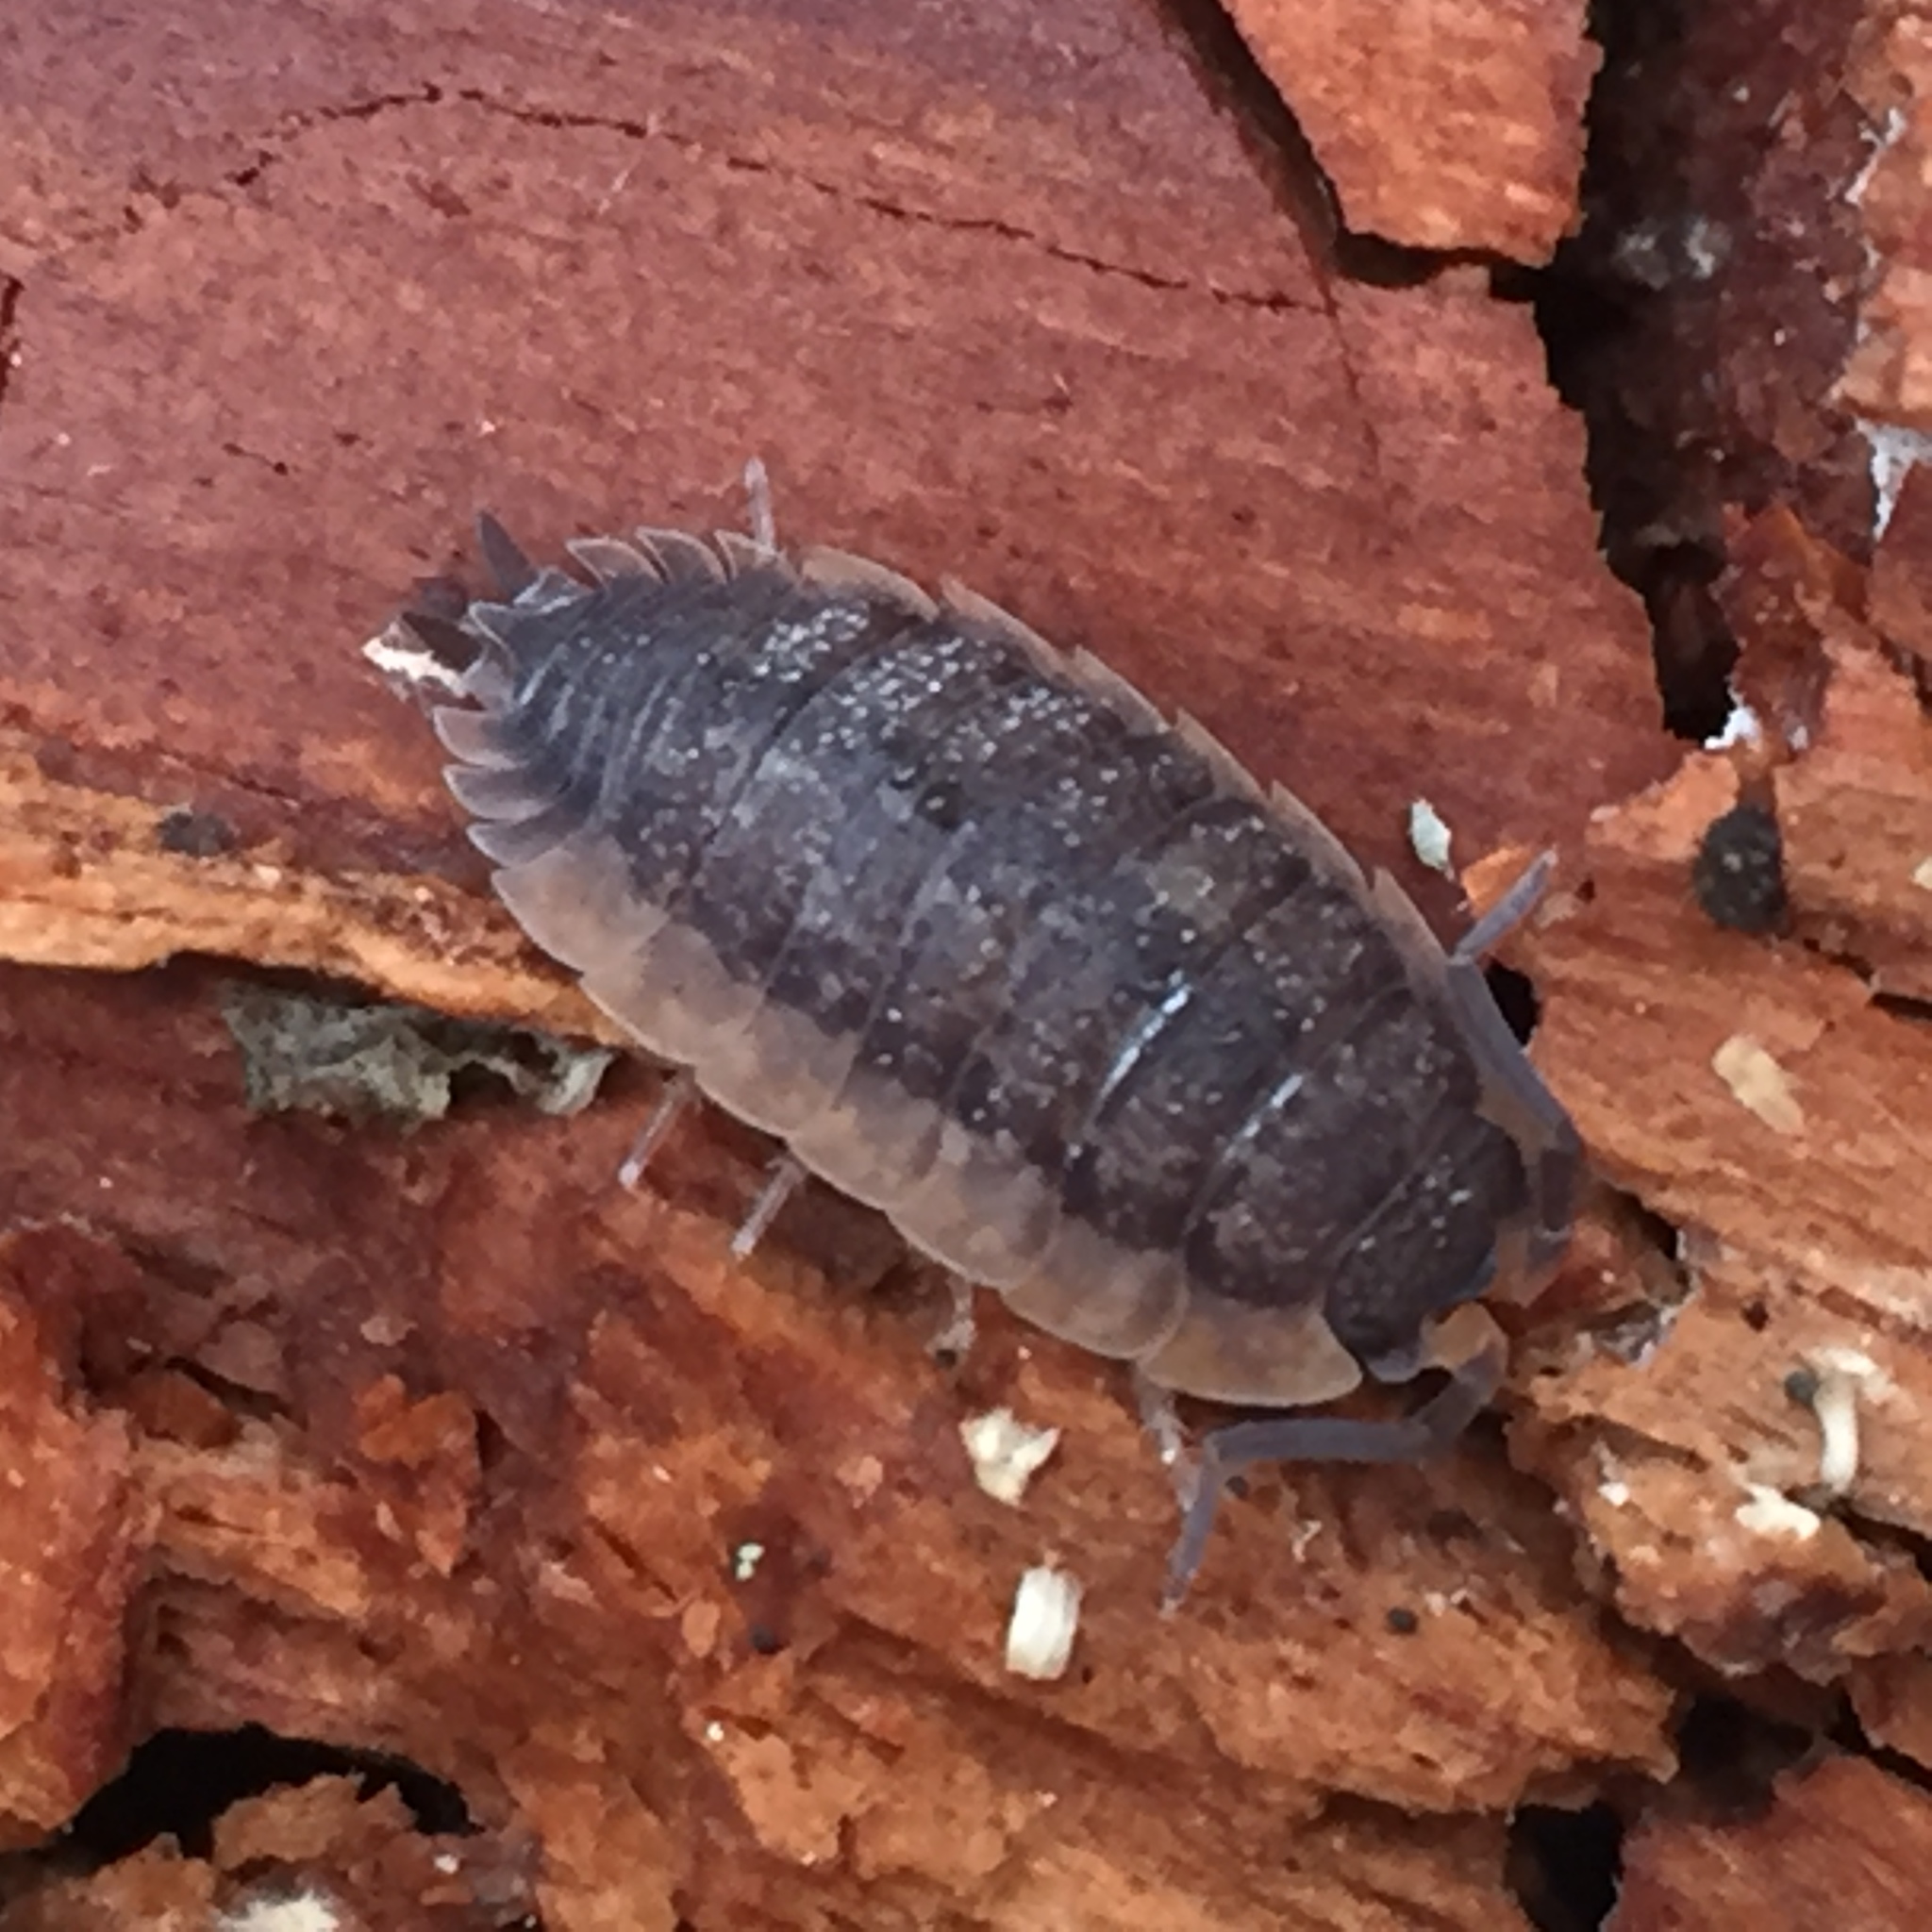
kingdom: Animalia
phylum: Arthropoda
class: Malacostraca
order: Isopoda
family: Porcellionidae
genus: Porcellio
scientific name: Porcellio scaber
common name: Common rough woodlouse
